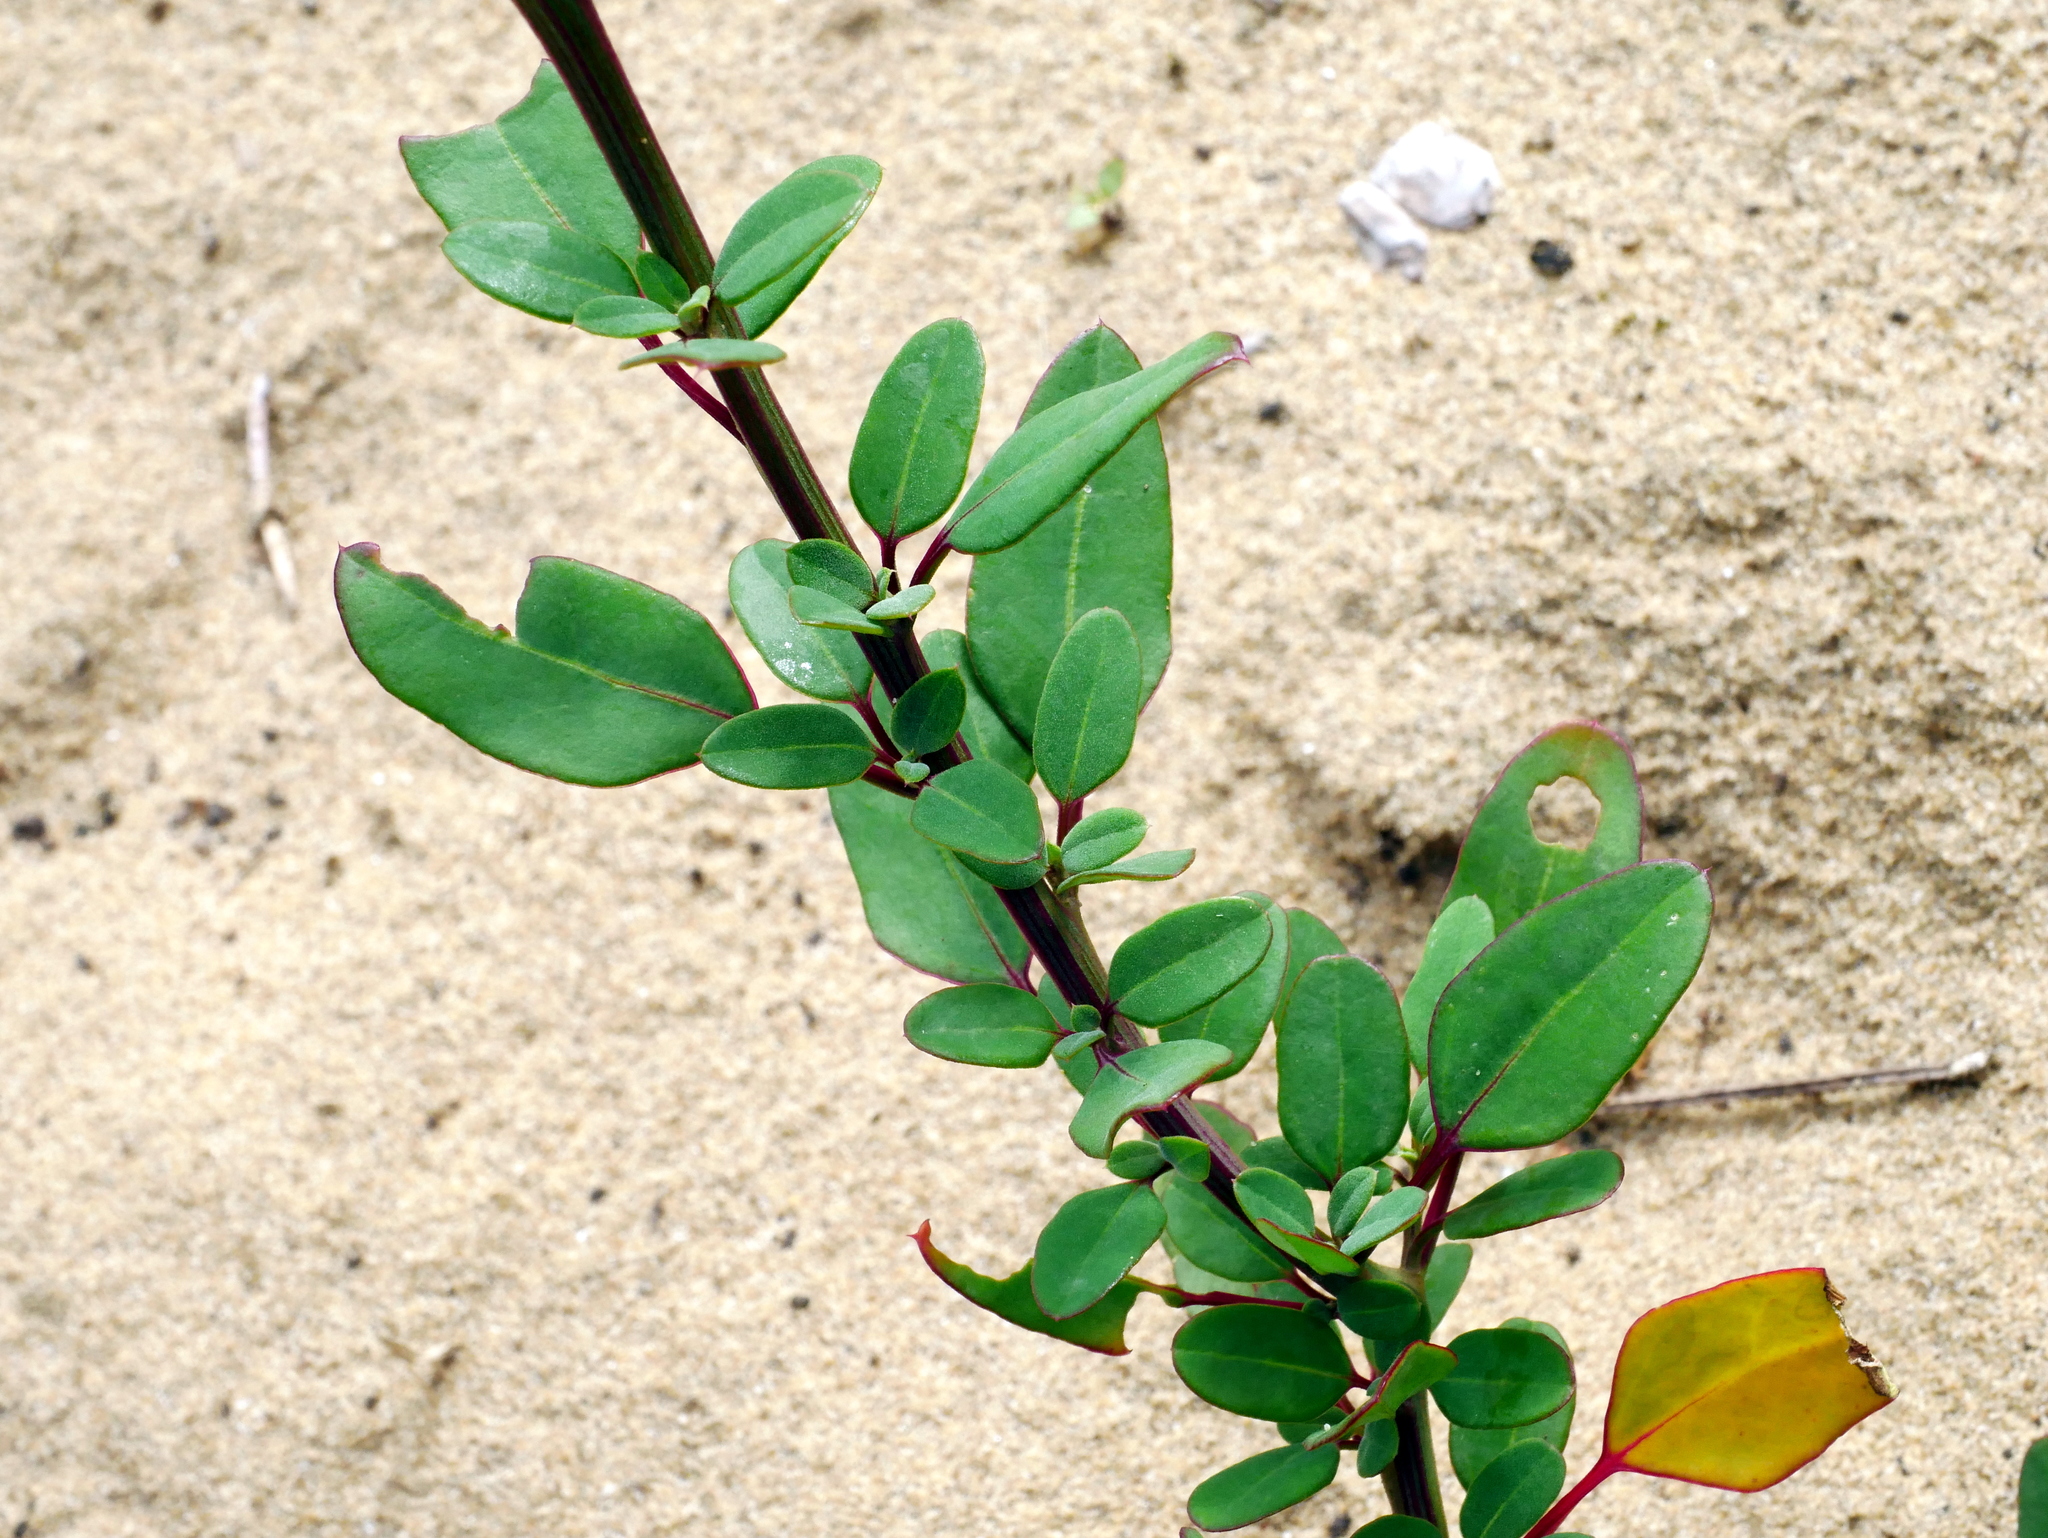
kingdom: Plantae
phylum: Tracheophyta
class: Magnoliopsida
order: Caryophyllales
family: Amaranthaceae
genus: Chenopodium
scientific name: Chenopodium acuminatum
